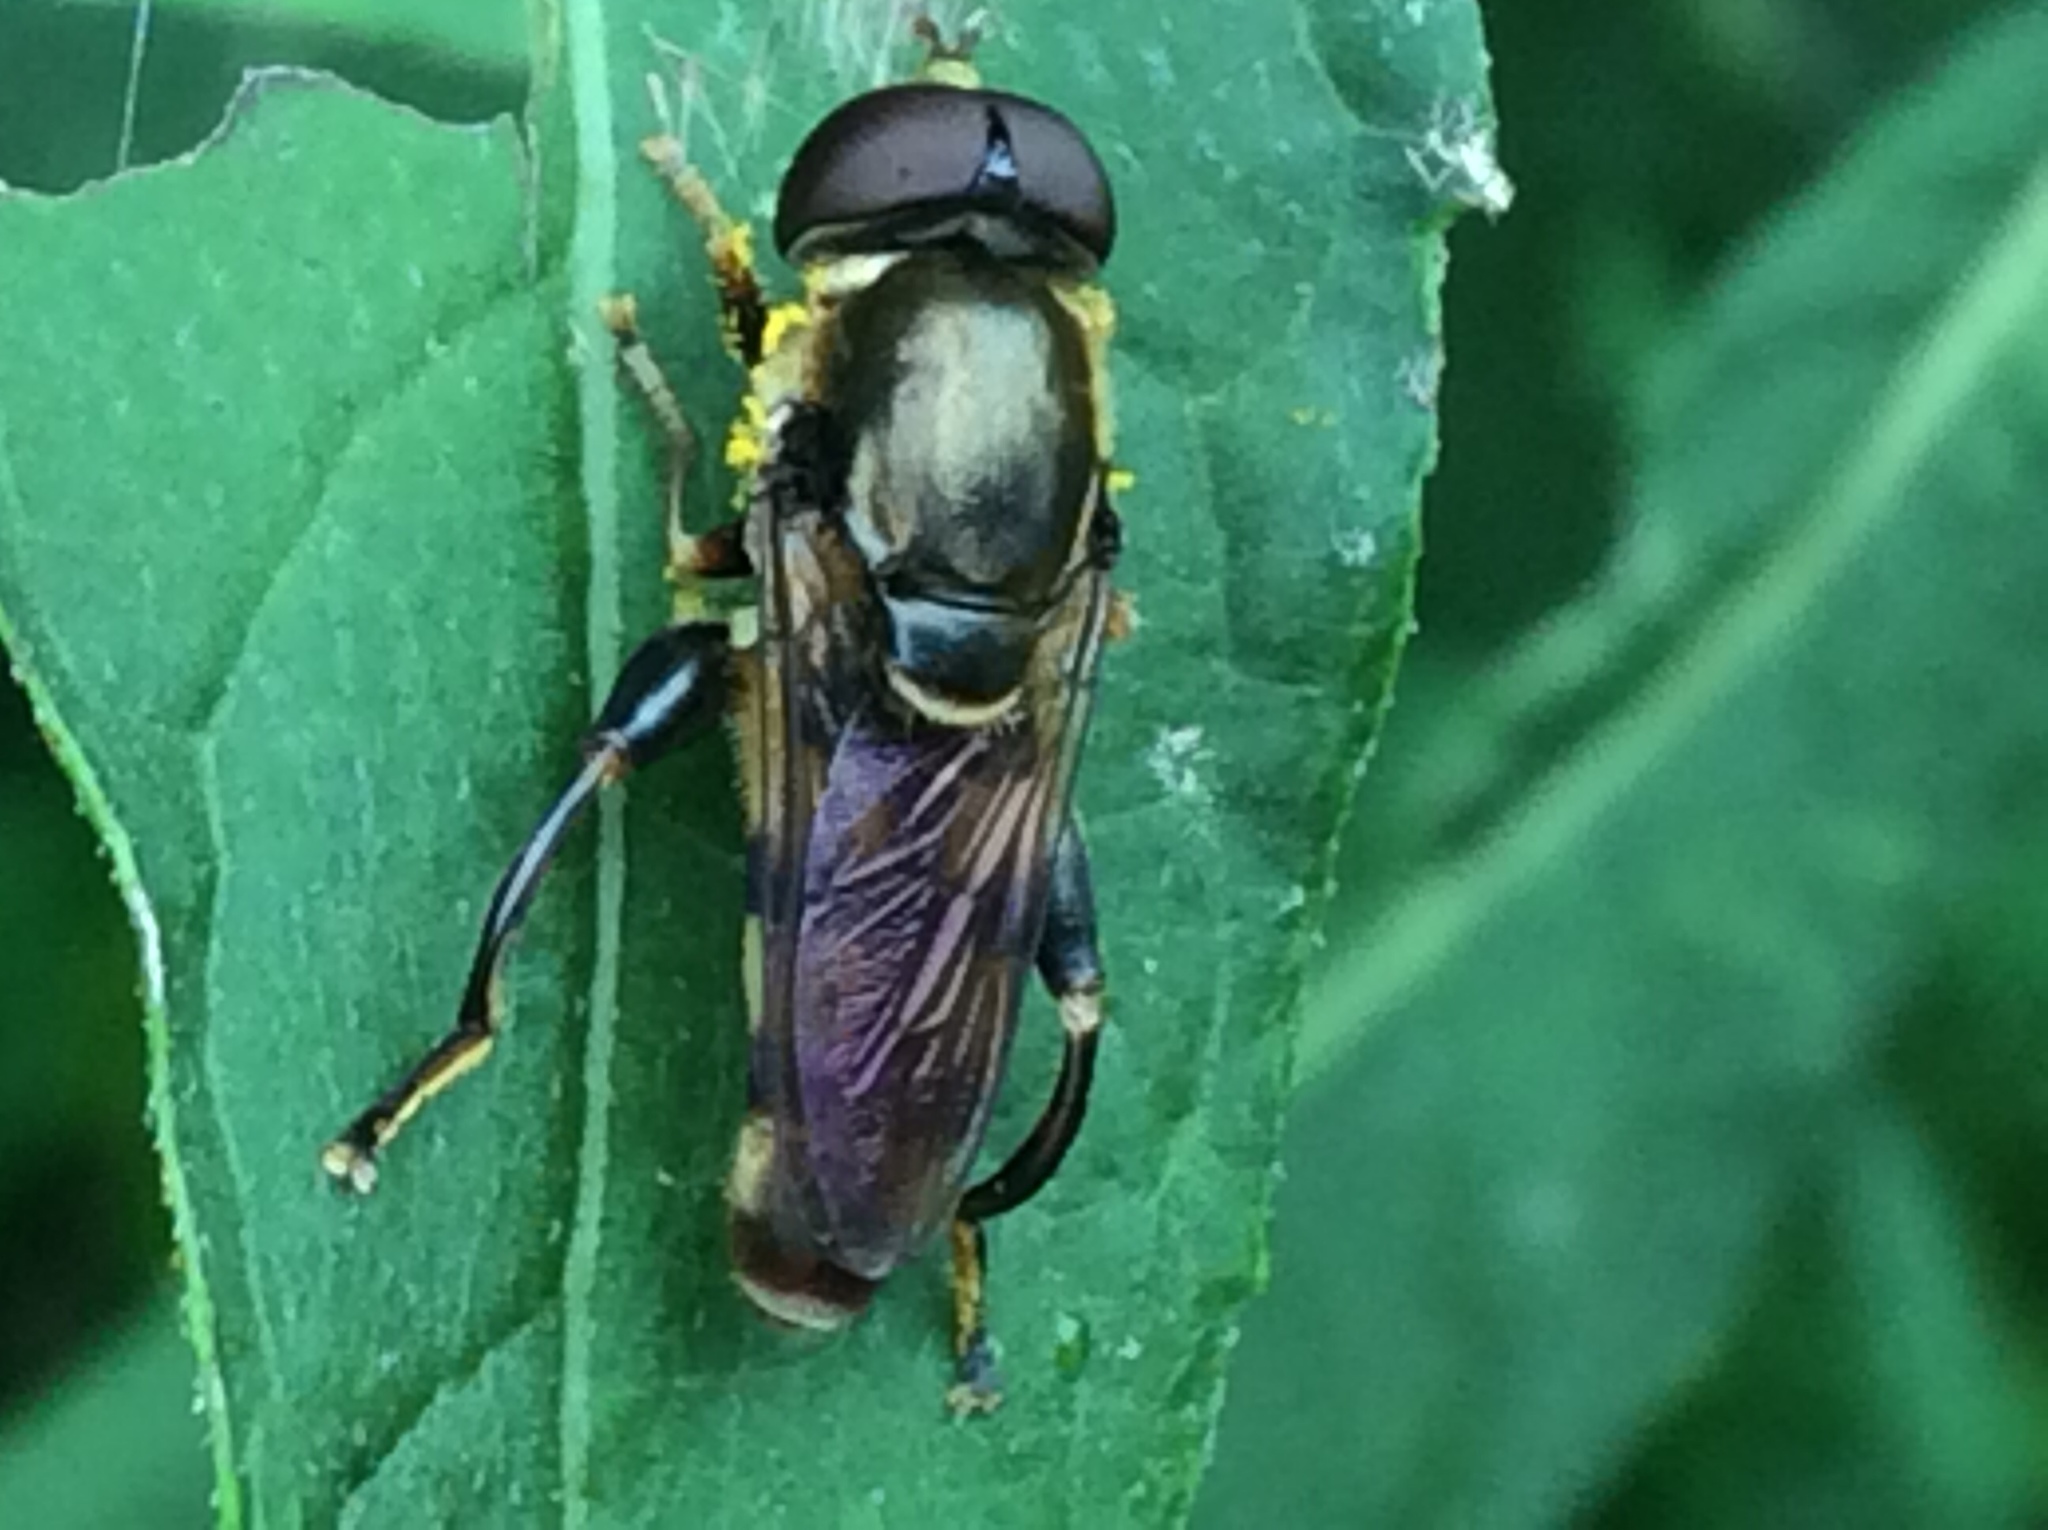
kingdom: Animalia
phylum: Arthropoda
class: Insecta
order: Diptera
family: Syrphidae
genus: Tropidia
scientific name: Tropidia quadrata
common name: Common thick-legged fly
